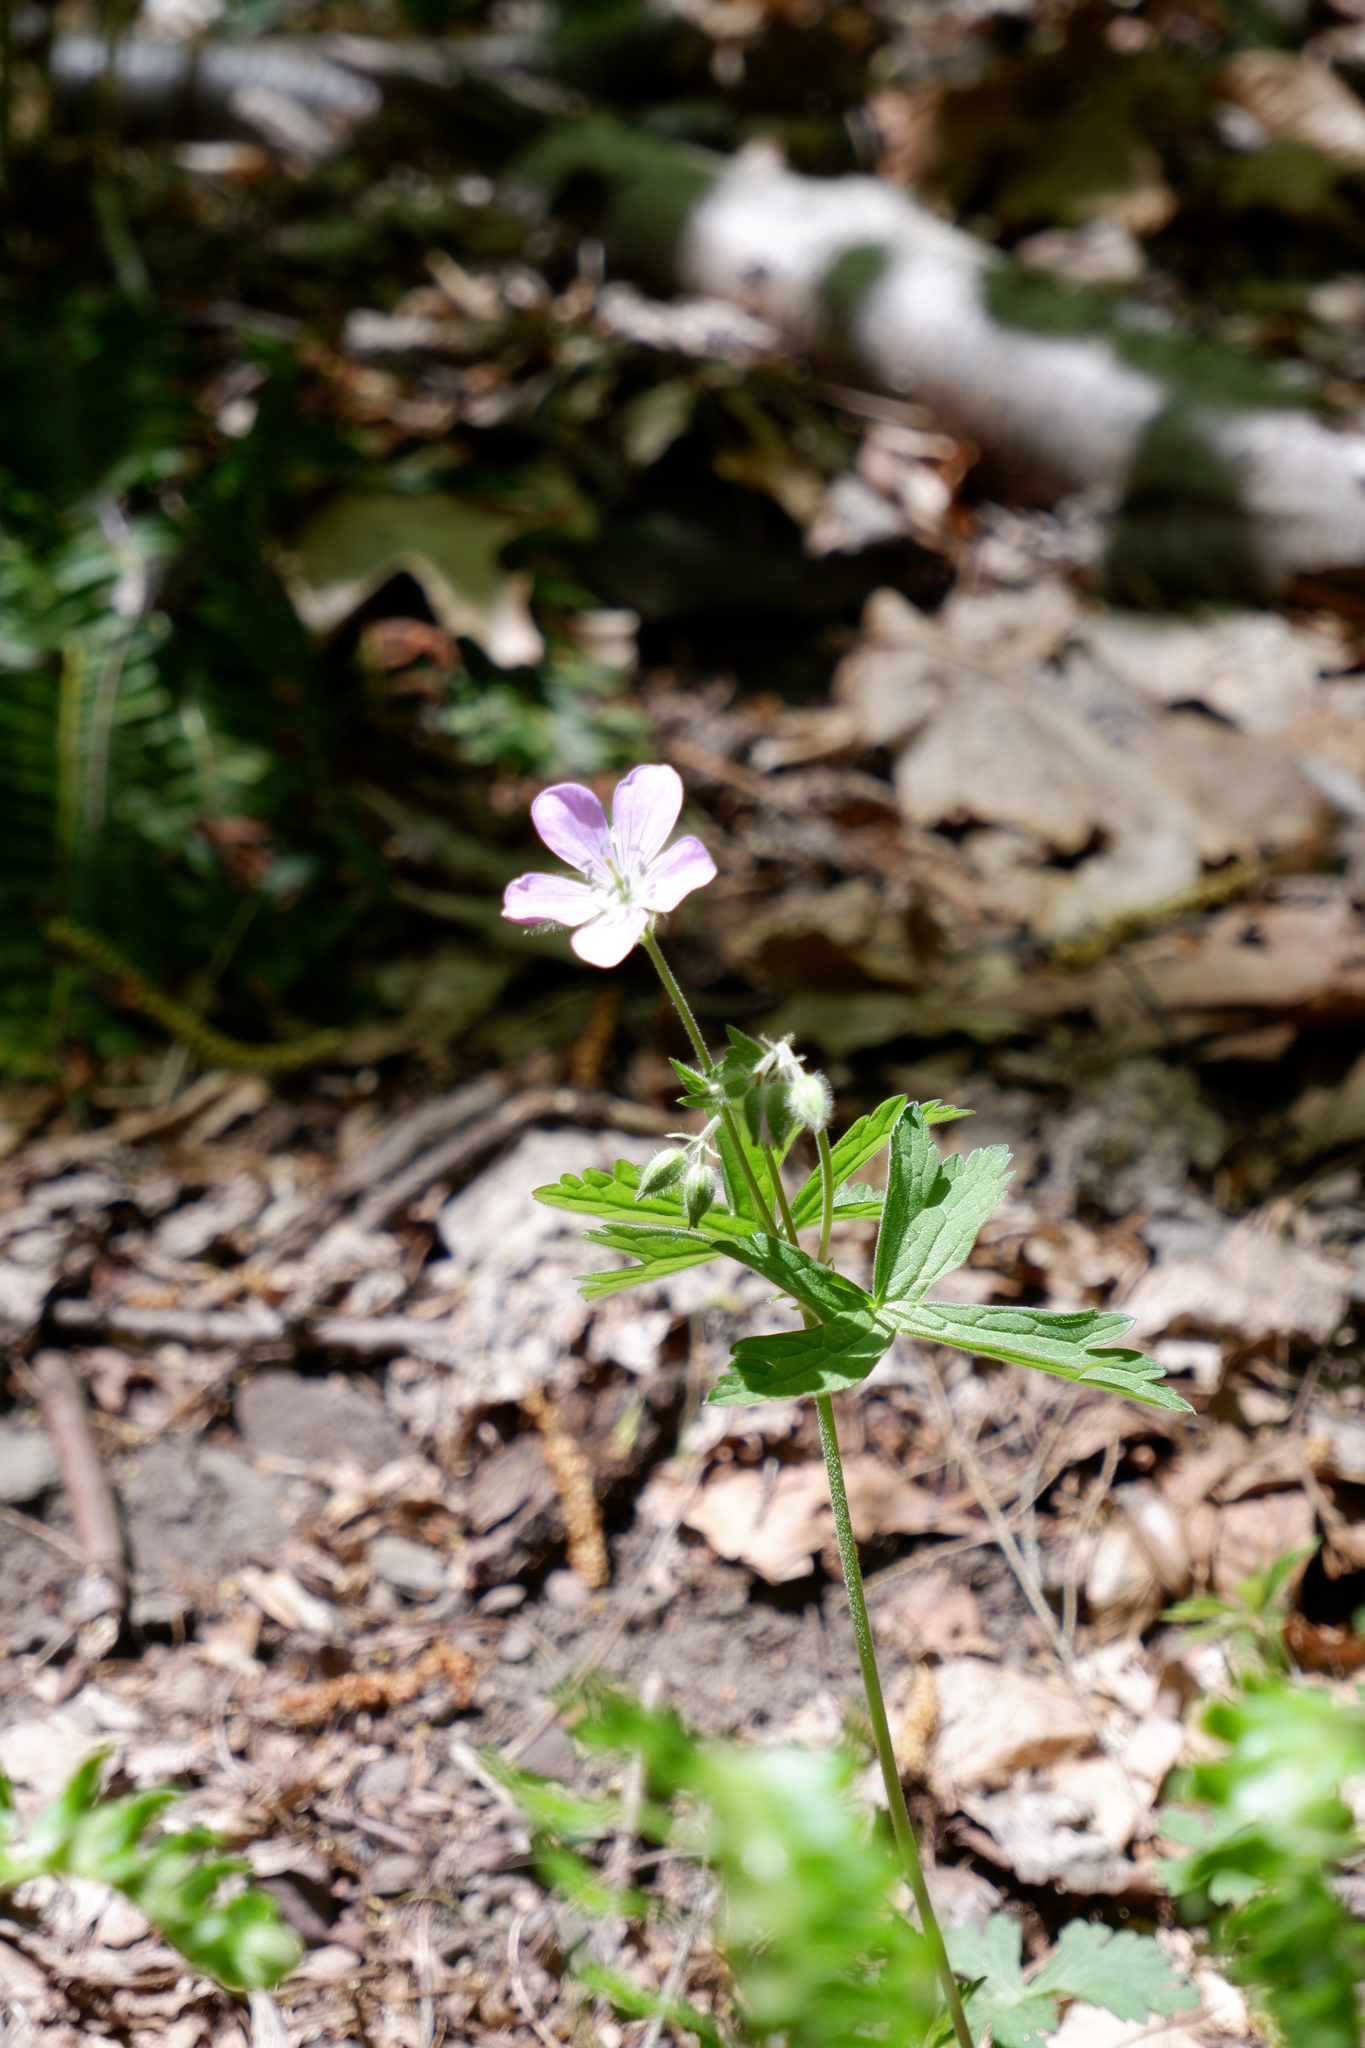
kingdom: Plantae
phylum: Tracheophyta
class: Magnoliopsida
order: Geraniales
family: Geraniaceae
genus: Geranium
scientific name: Geranium maculatum
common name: Spotted geranium
